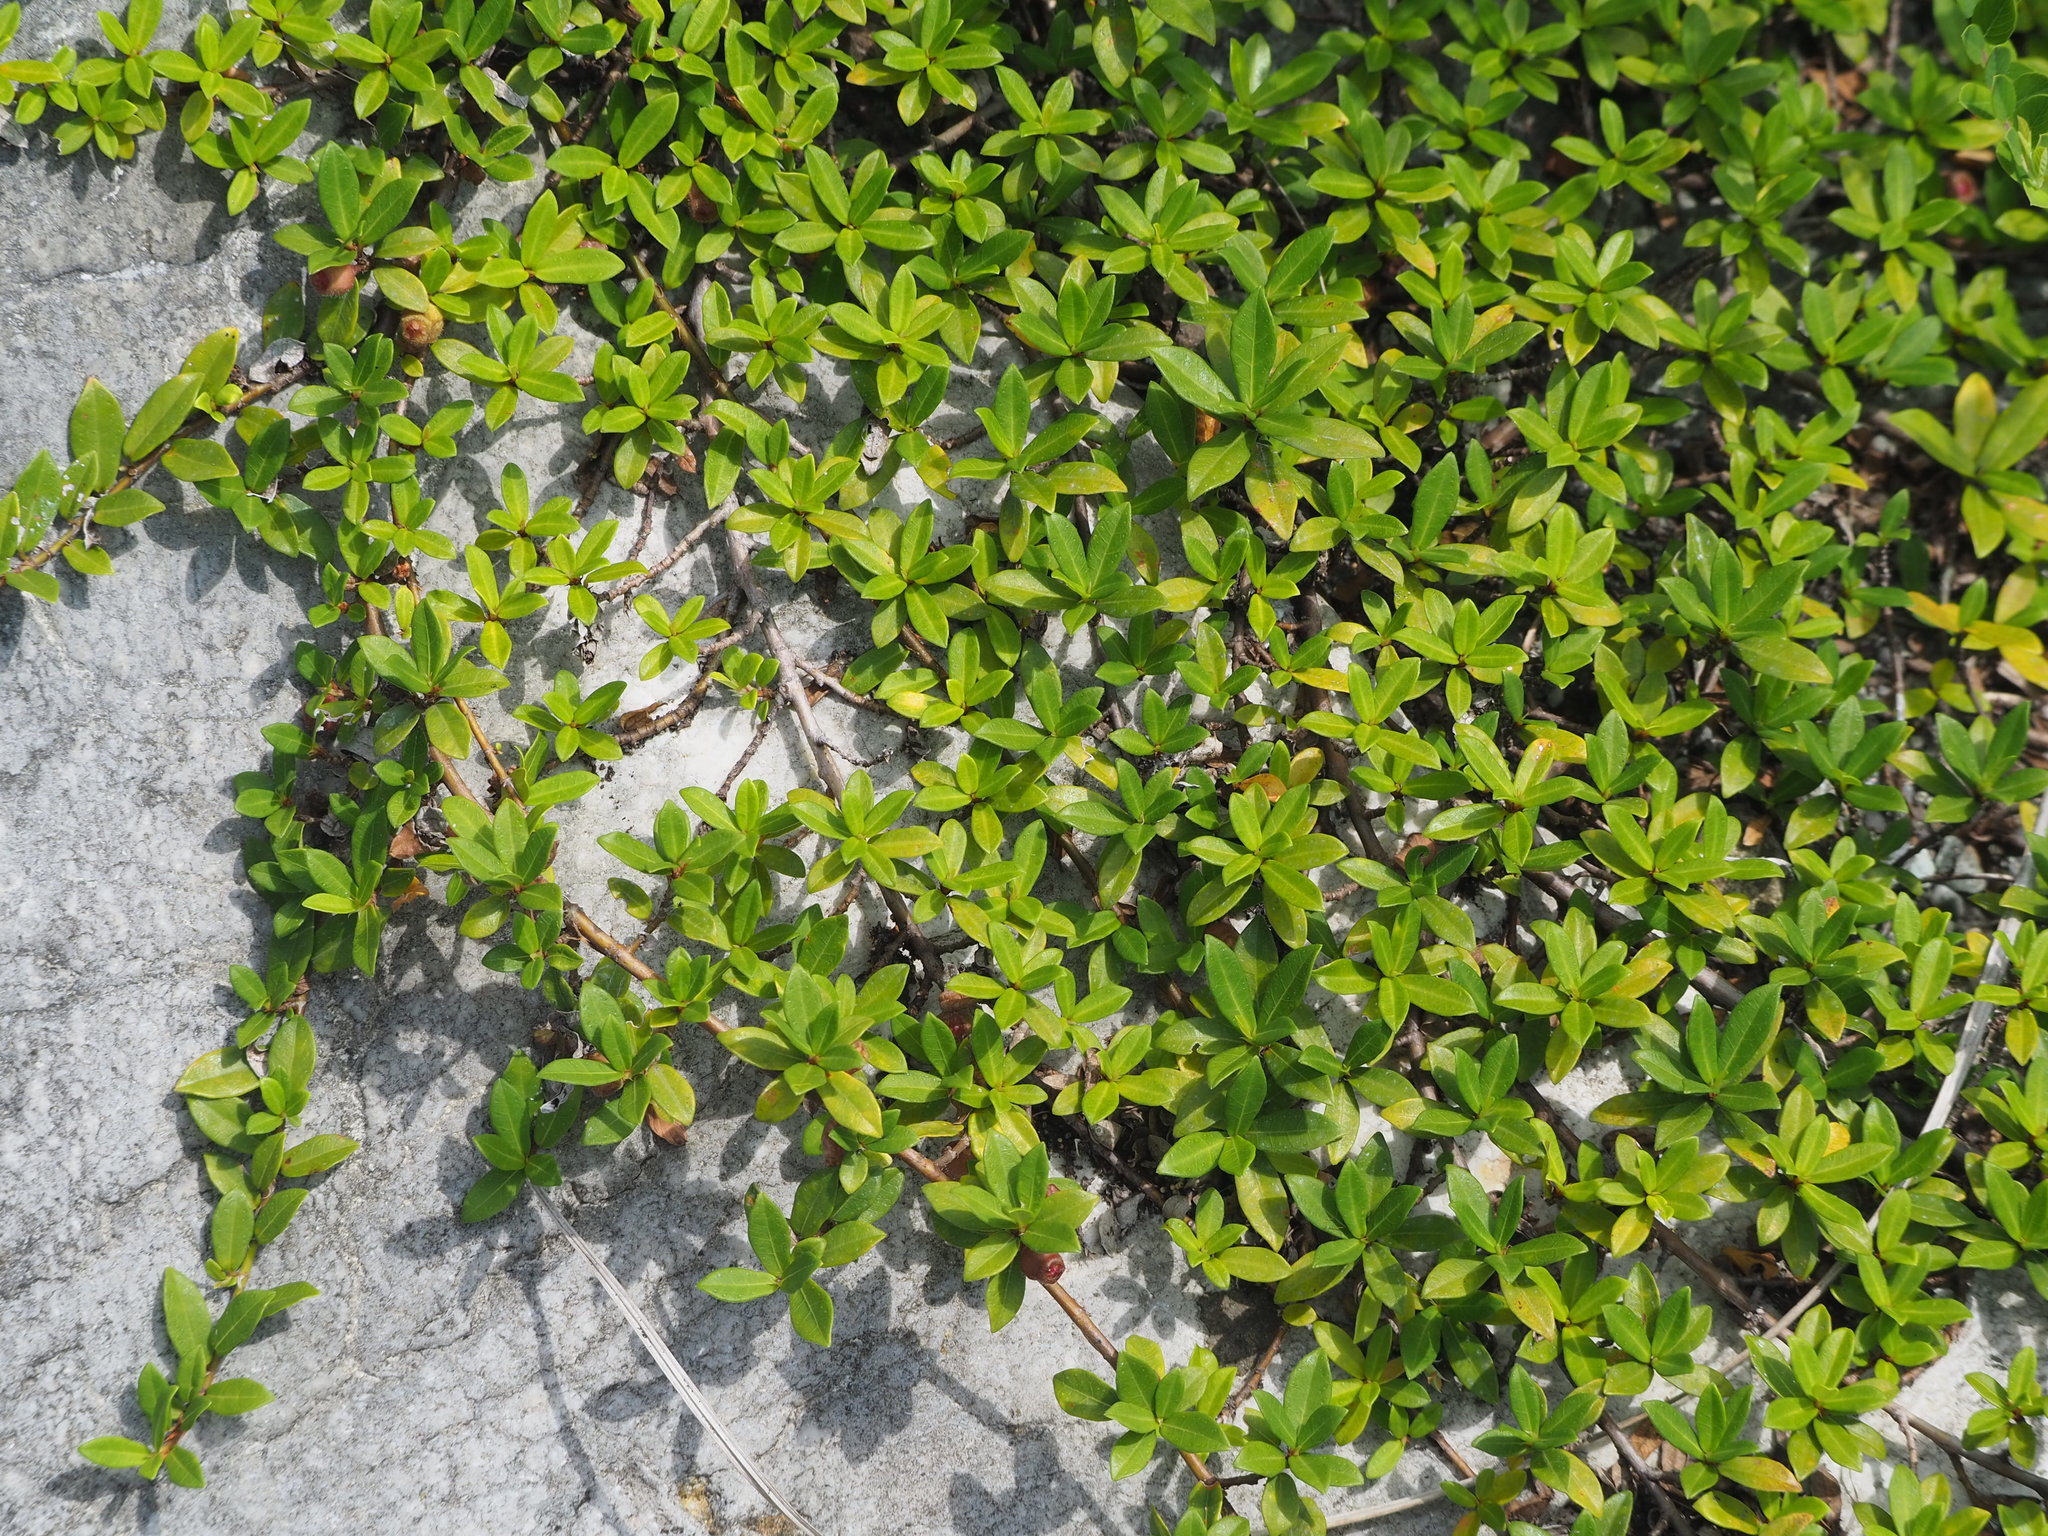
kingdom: Plantae
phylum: Tracheophyta
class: Magnoliopsida
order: Rosales
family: Moraceae
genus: Ficus
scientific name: Ficus vaccinioides
